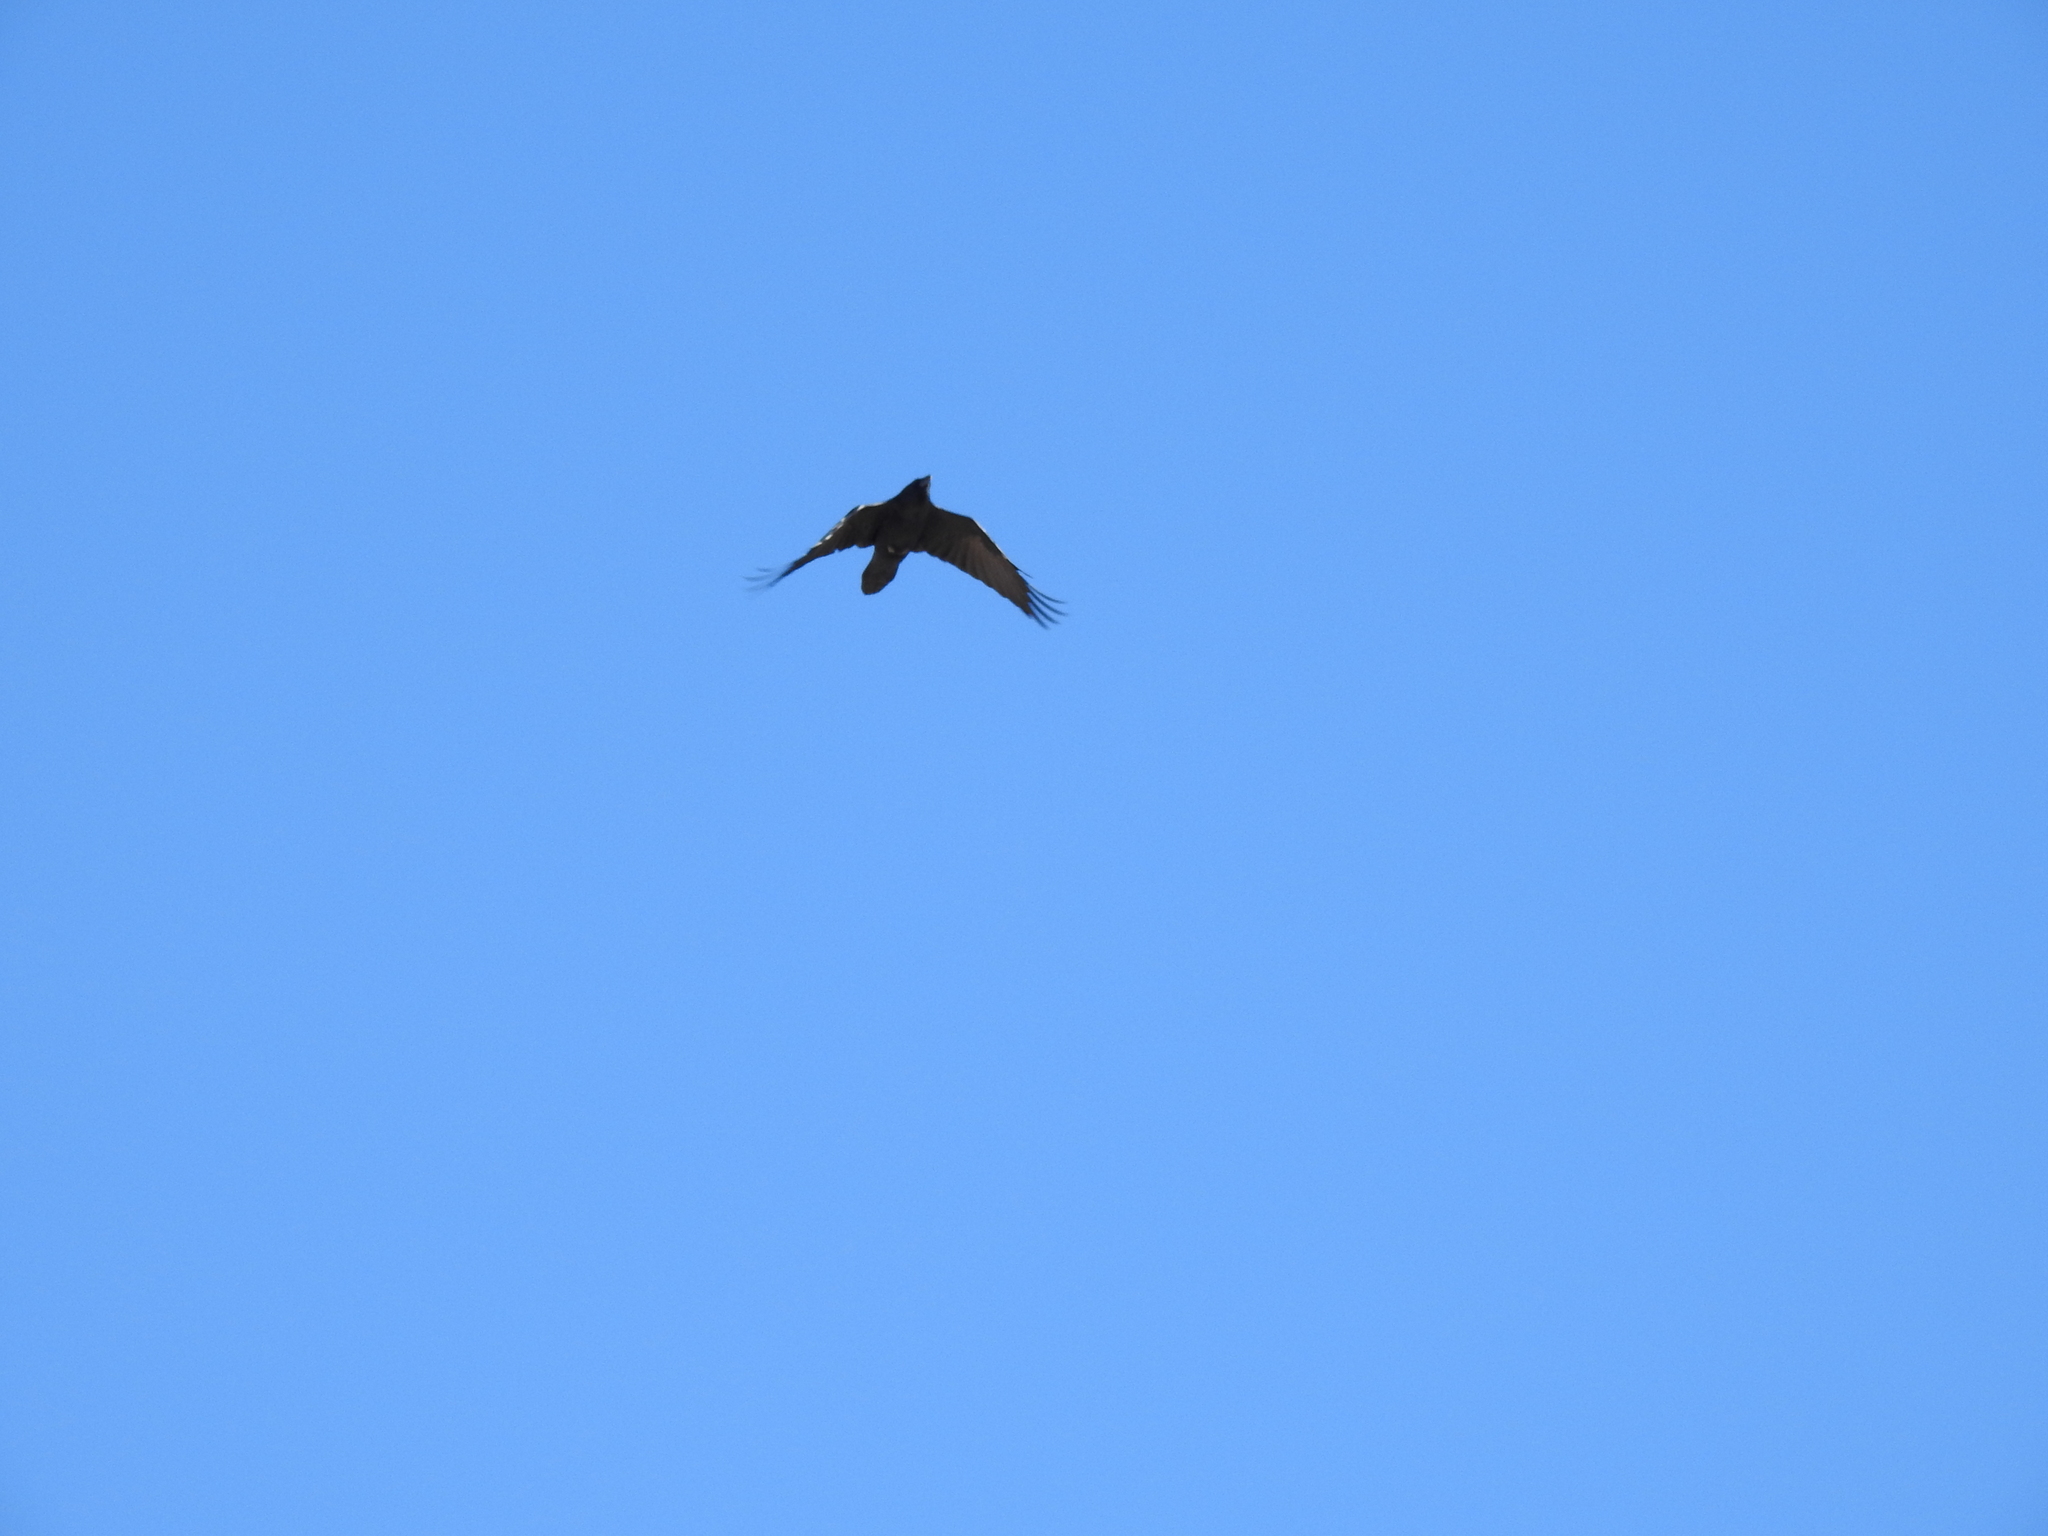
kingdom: Animalia
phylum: Chordata
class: Aves
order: Passeriformes
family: Corvidae
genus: Corvus
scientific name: Corvus corax
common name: Common raven
